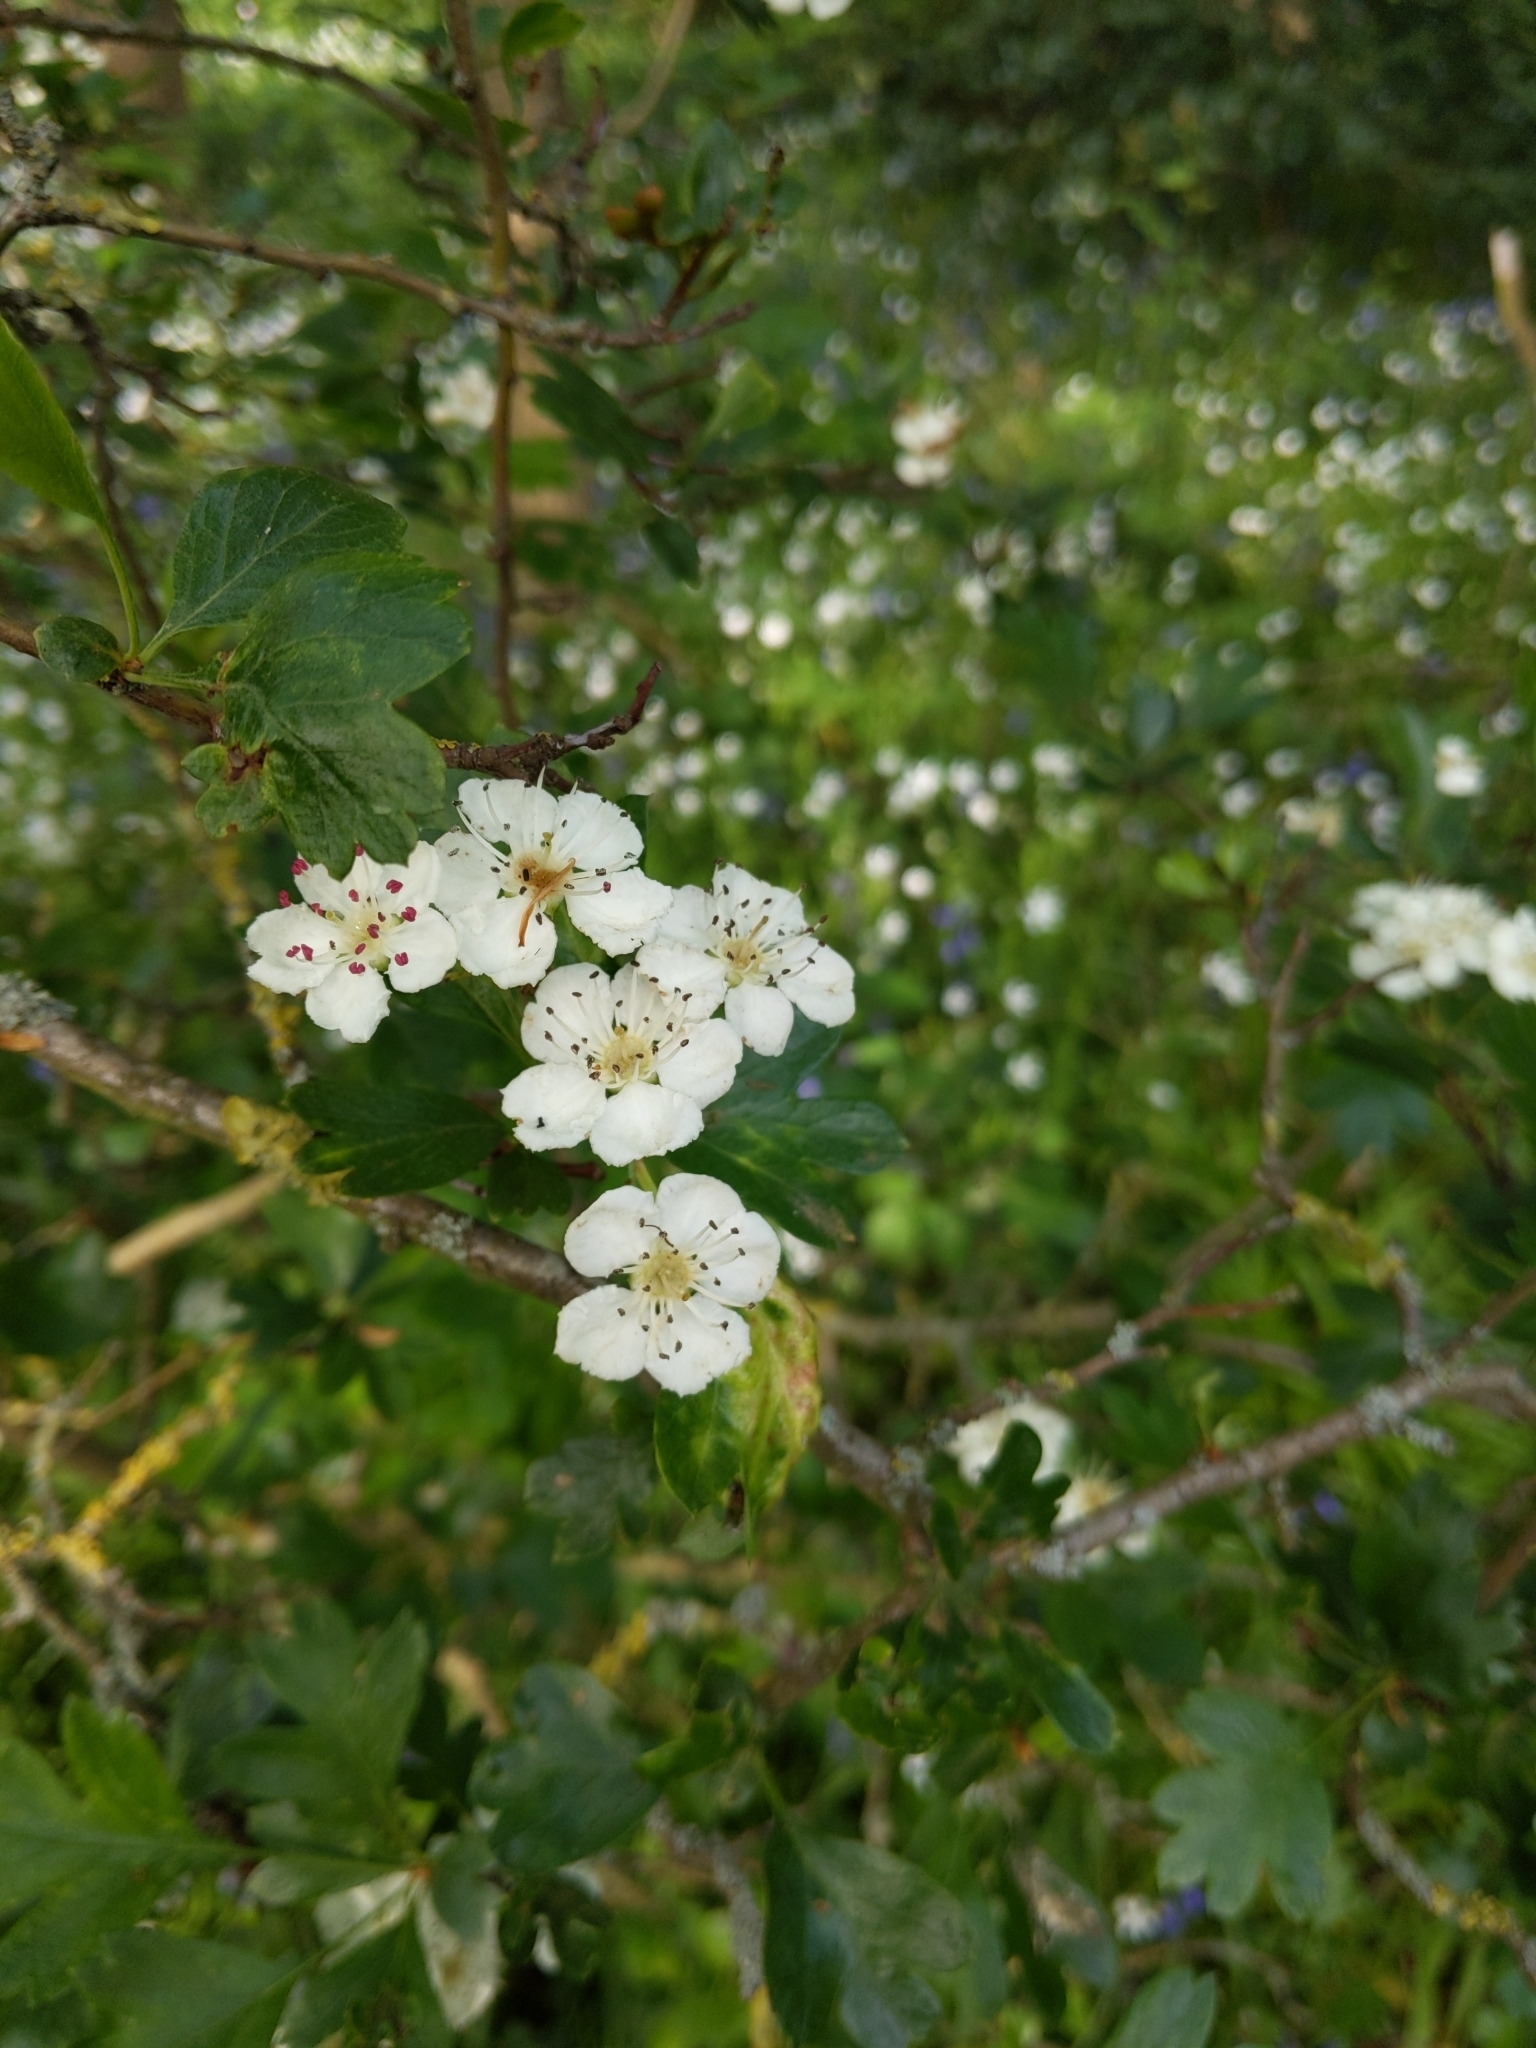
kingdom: Plantae
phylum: Tracheophyta
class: Magnoliopsida
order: Rosales
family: Rosaceae
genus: Crataegus
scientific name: Crataegus monogyna
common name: Hawthorn
